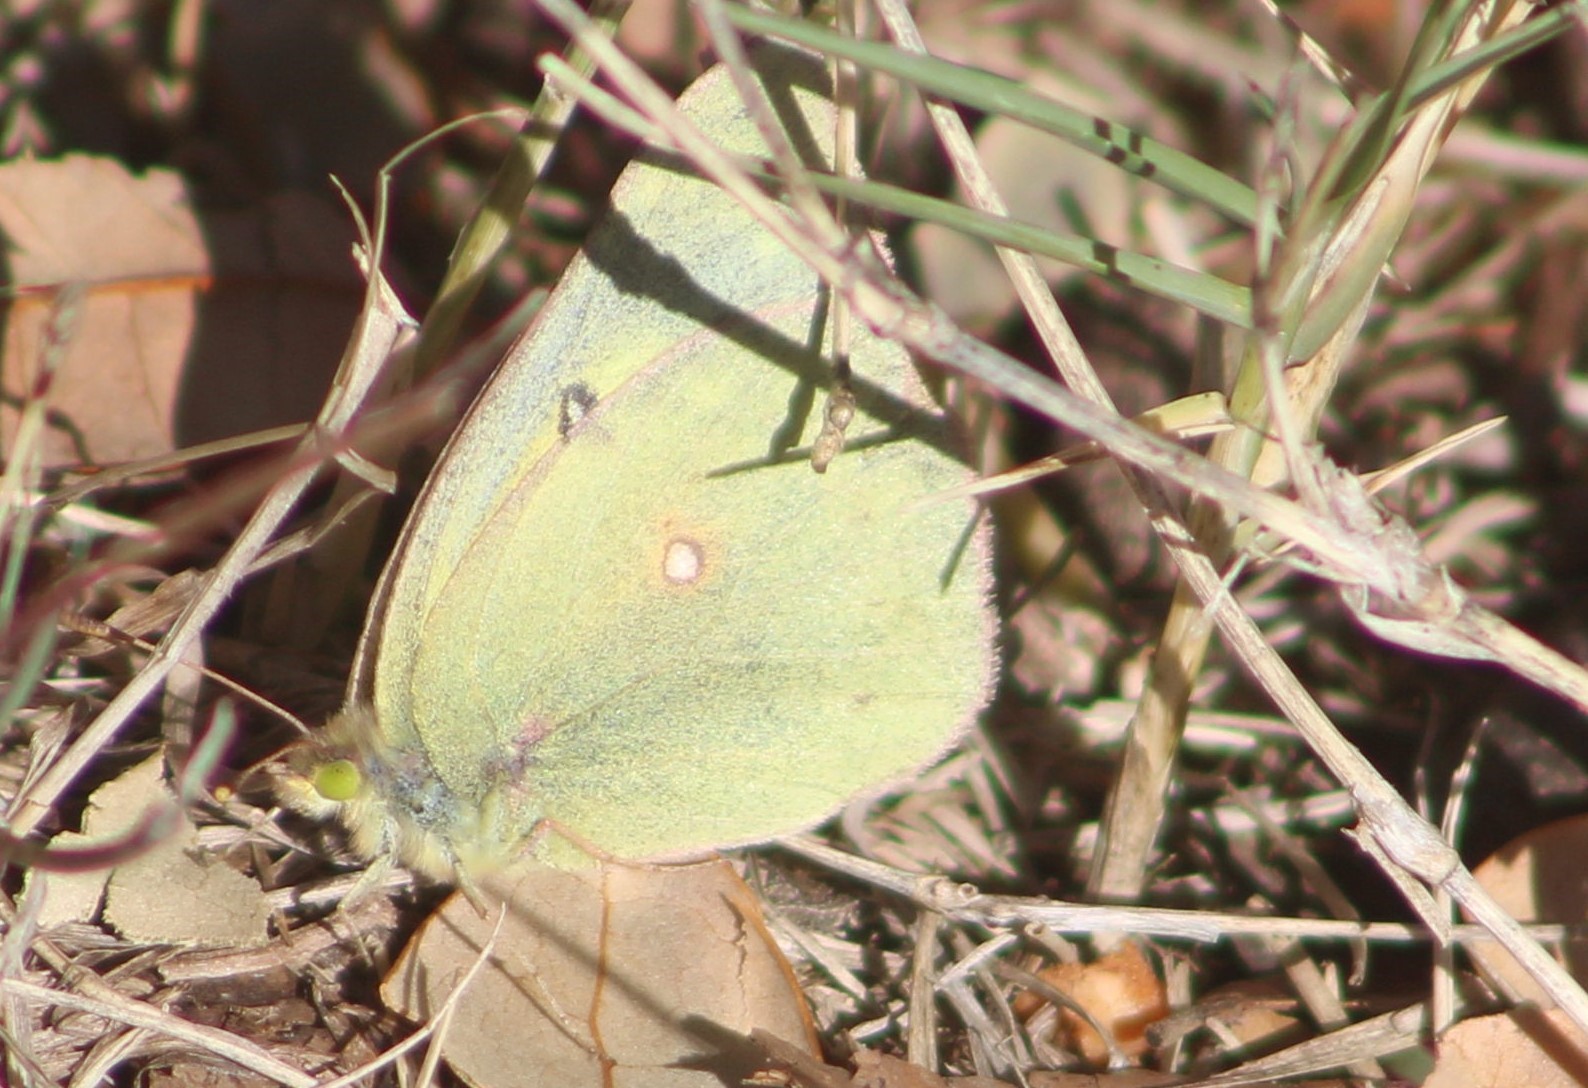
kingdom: Animalia
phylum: Arthropoda
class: Insecta
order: Lepidoptera
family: Pieridae
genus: Colias
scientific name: Colias eurytheme
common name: Alfalfa butterfly
